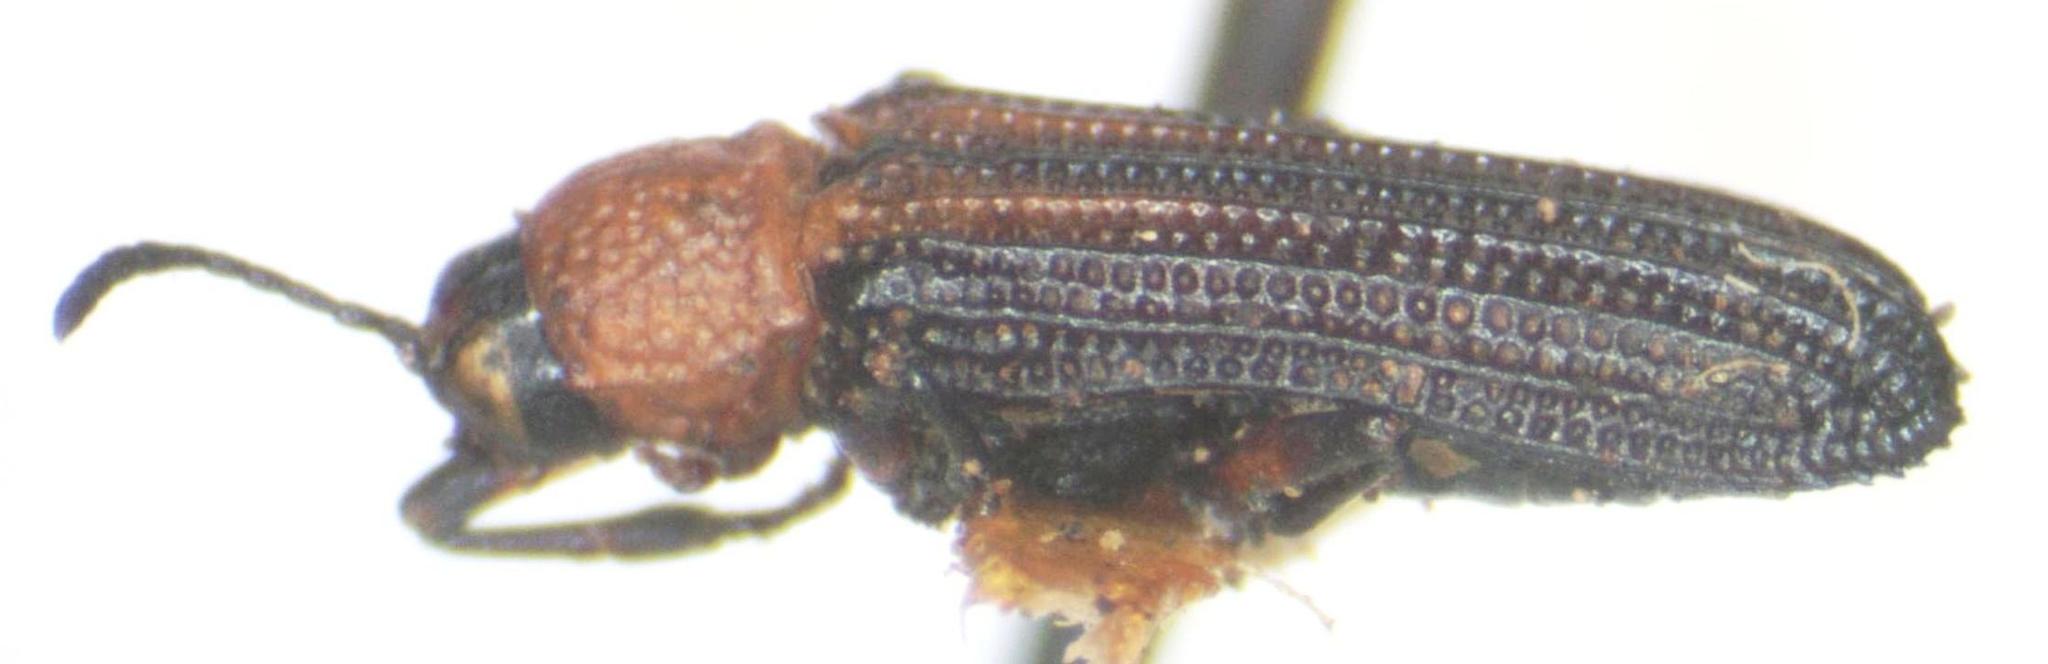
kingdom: Animalia
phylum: Arthropoda
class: Insecta
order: Coleoptera
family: Chrysomelidae
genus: Charistena
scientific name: Charistena ruficollis
